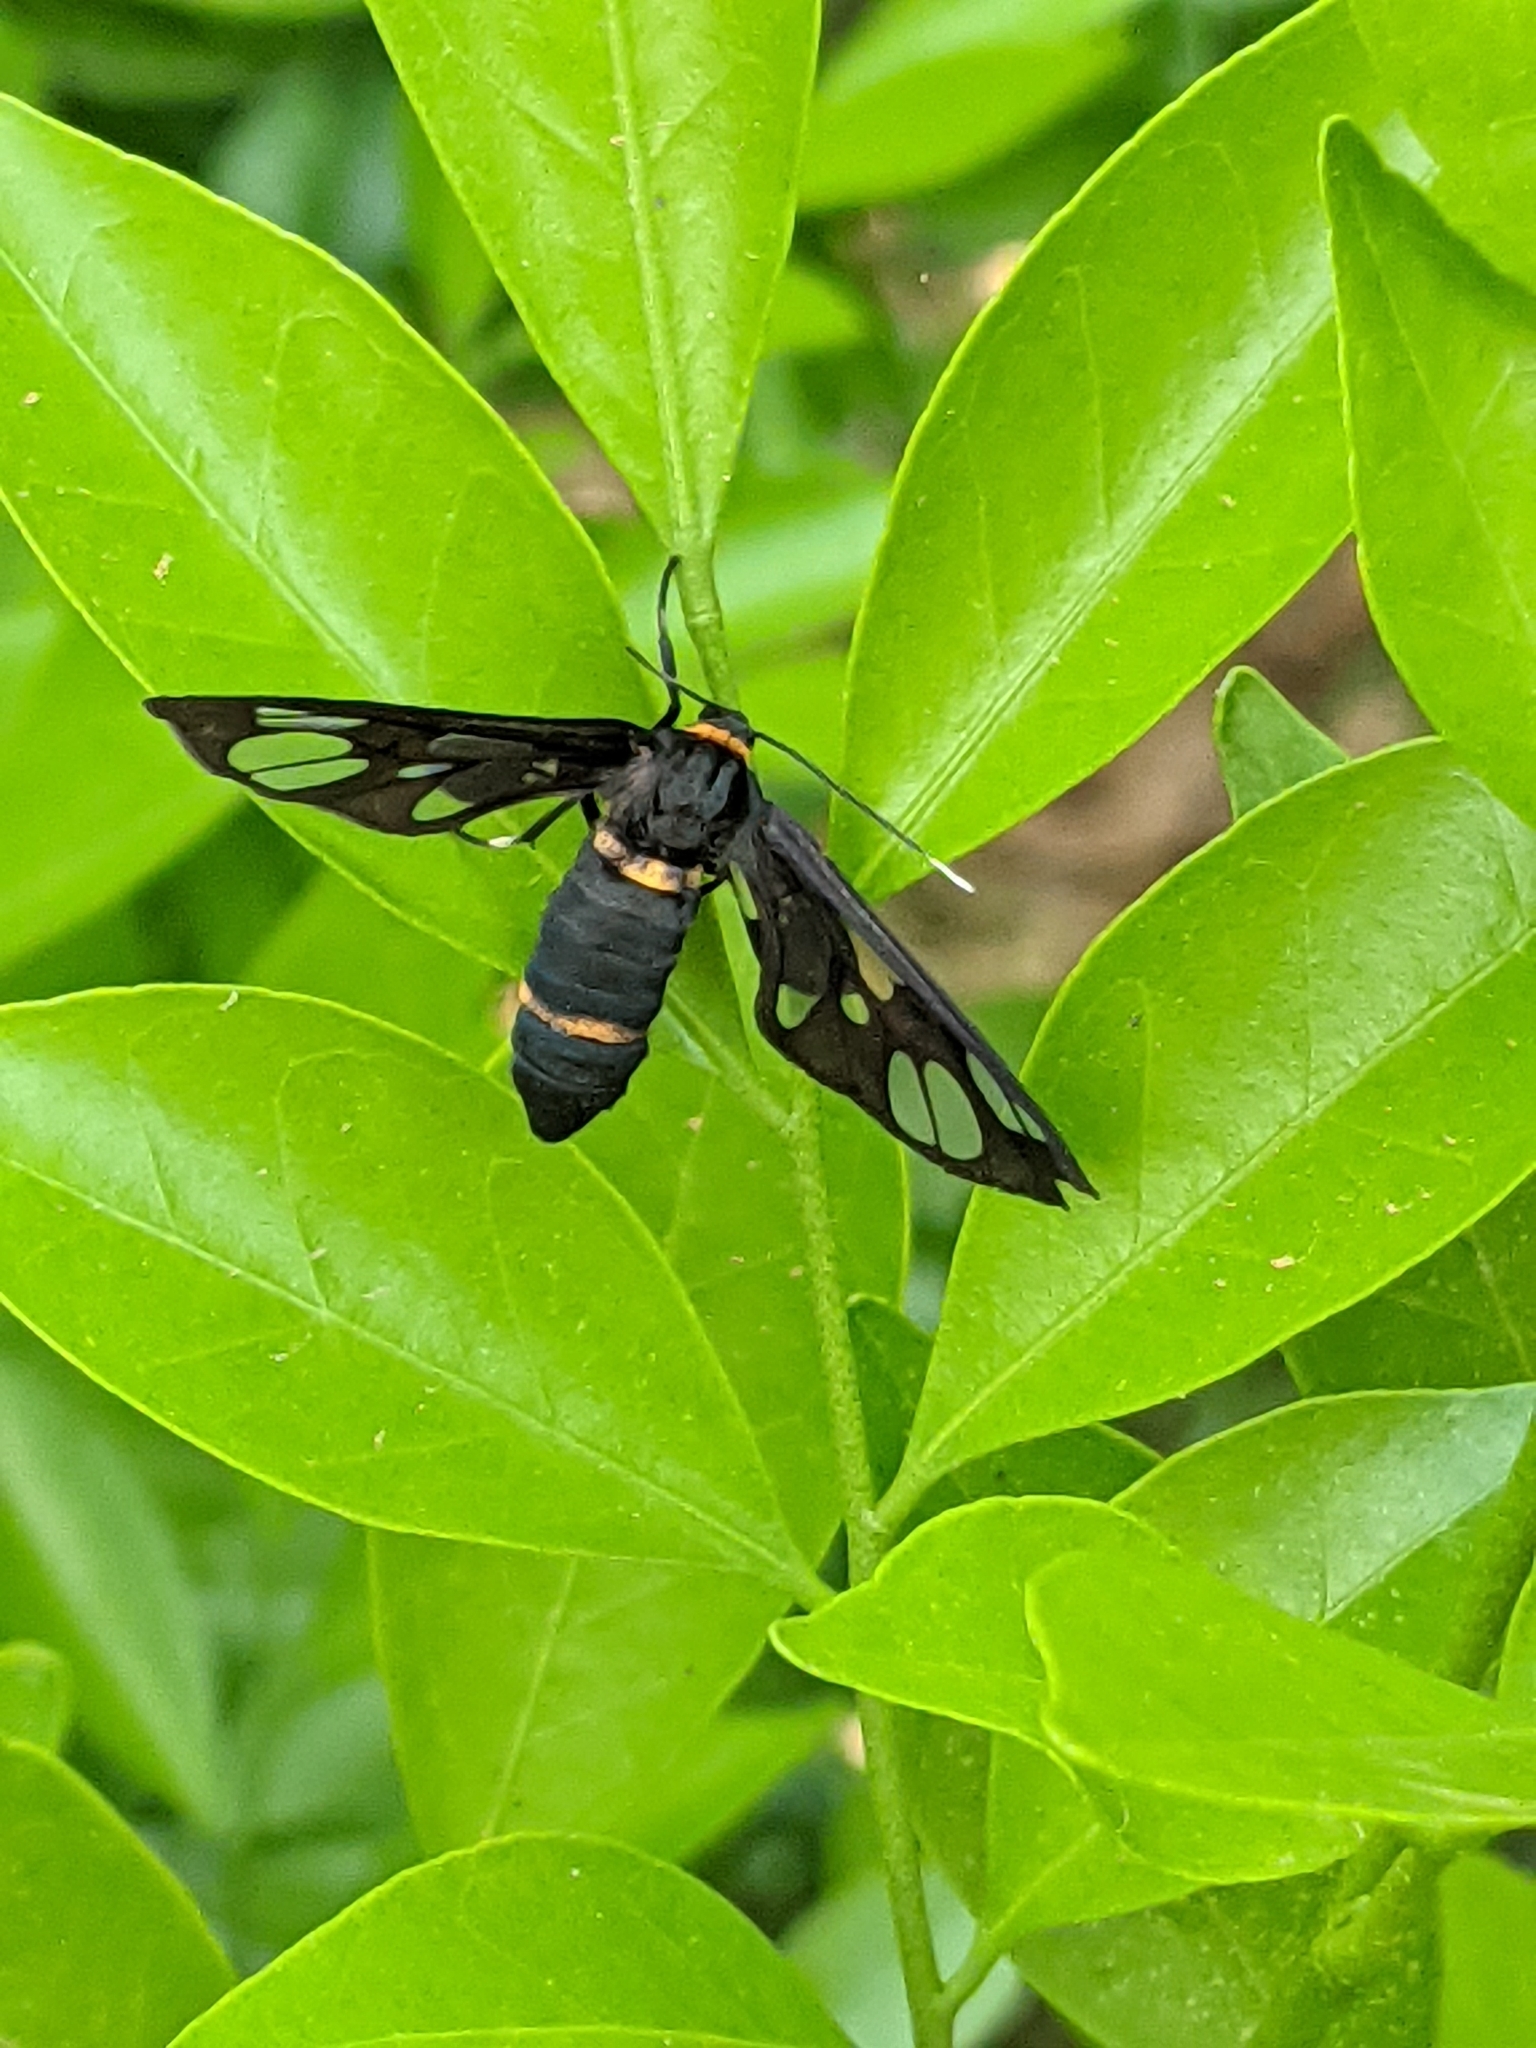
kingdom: Animalia
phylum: Arthropoda
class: Insecta
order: Lepidoptera
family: Erebidae
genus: Syntomoides
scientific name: Syntomoides imaon
